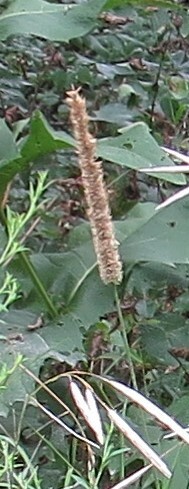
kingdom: Plantae
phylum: Tracheophyta
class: Liliopsida
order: Poales
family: Poaceae
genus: Phleum
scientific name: Phleum pratense
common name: Timothy grass
